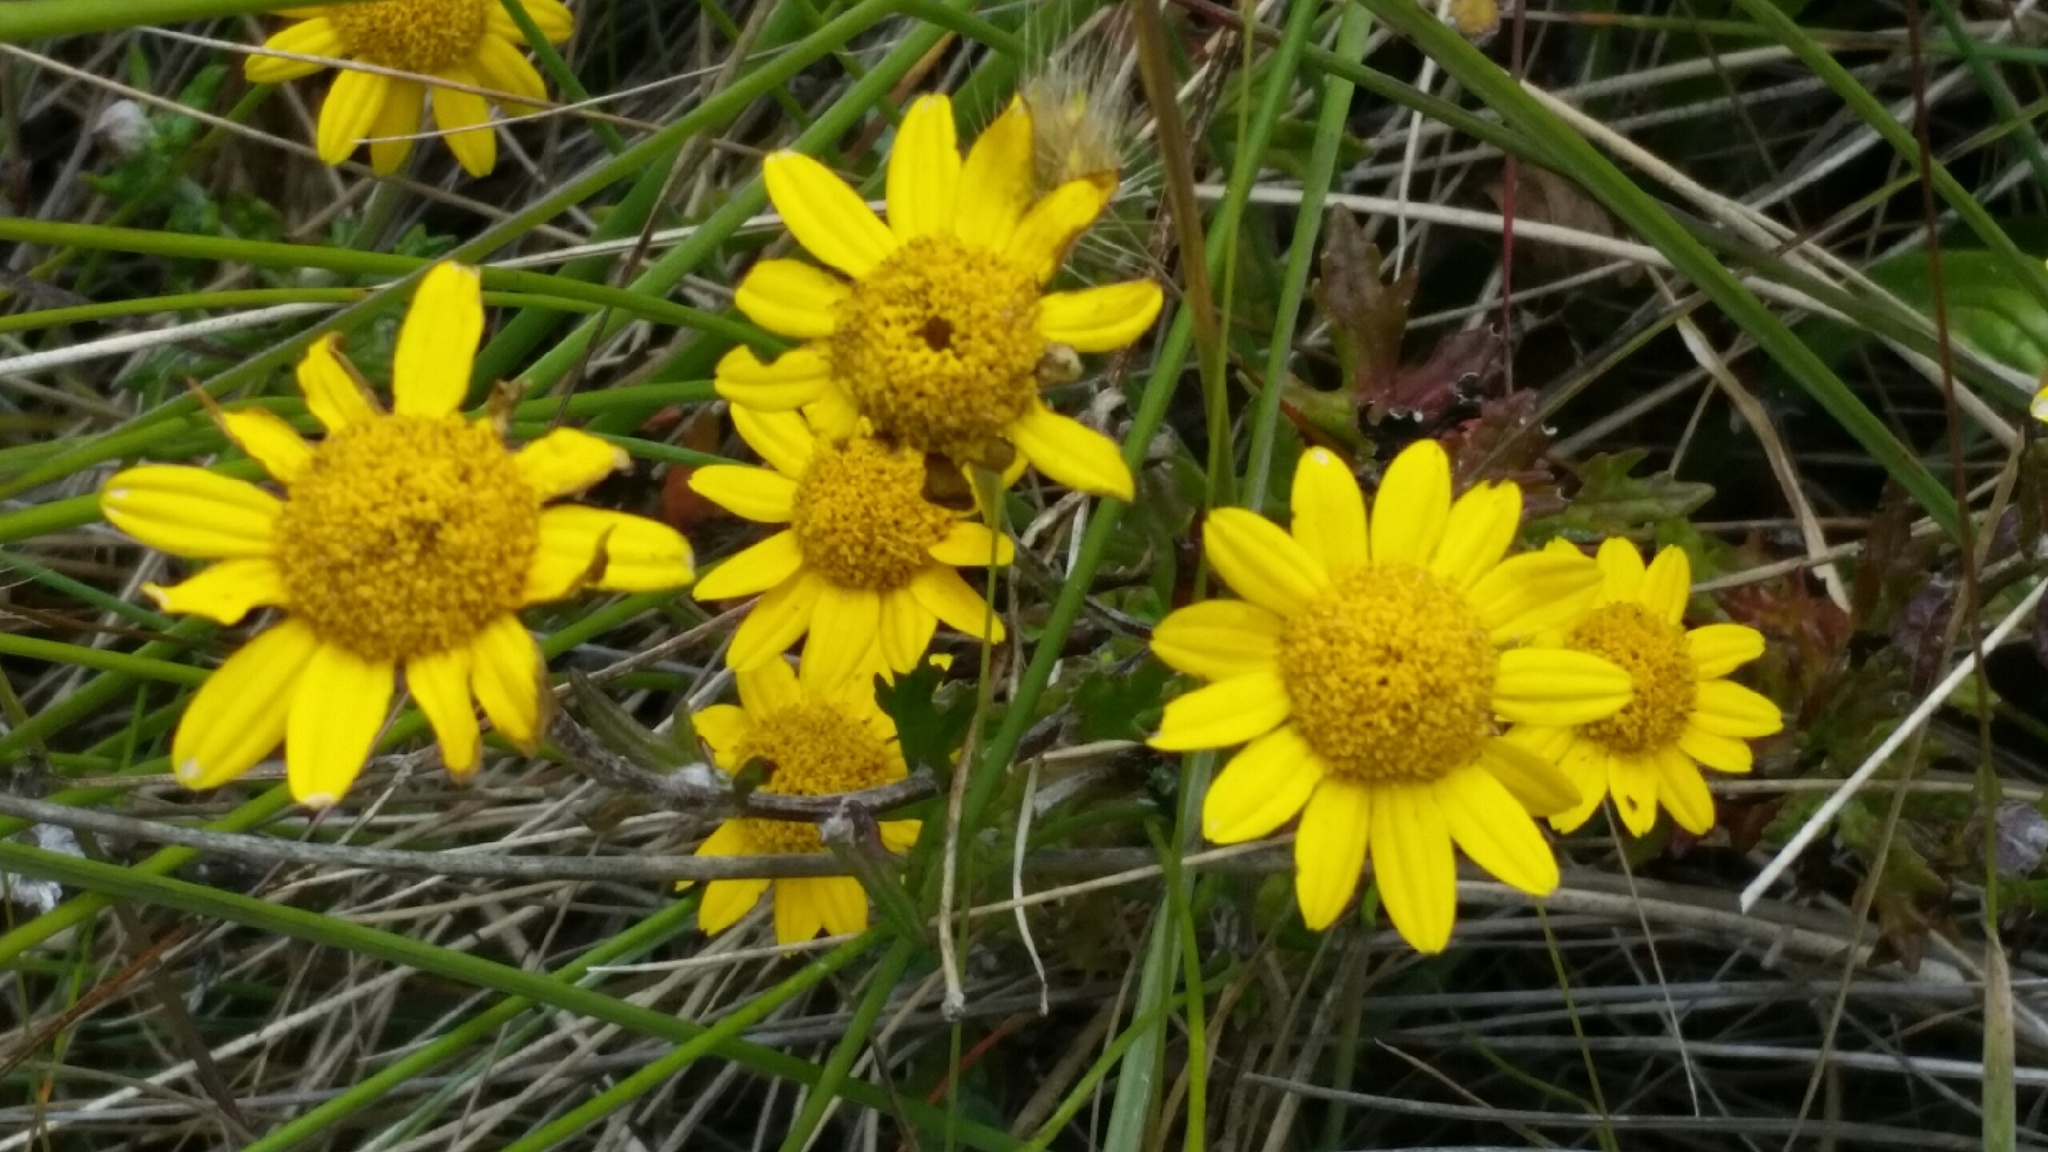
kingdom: Plantae
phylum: Tracheophyta
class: Magnoliopsida
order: Asterales
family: Asteraceae
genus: Eriophyllum
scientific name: Eriophyllum lanatum
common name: Common woolly-sunflower
